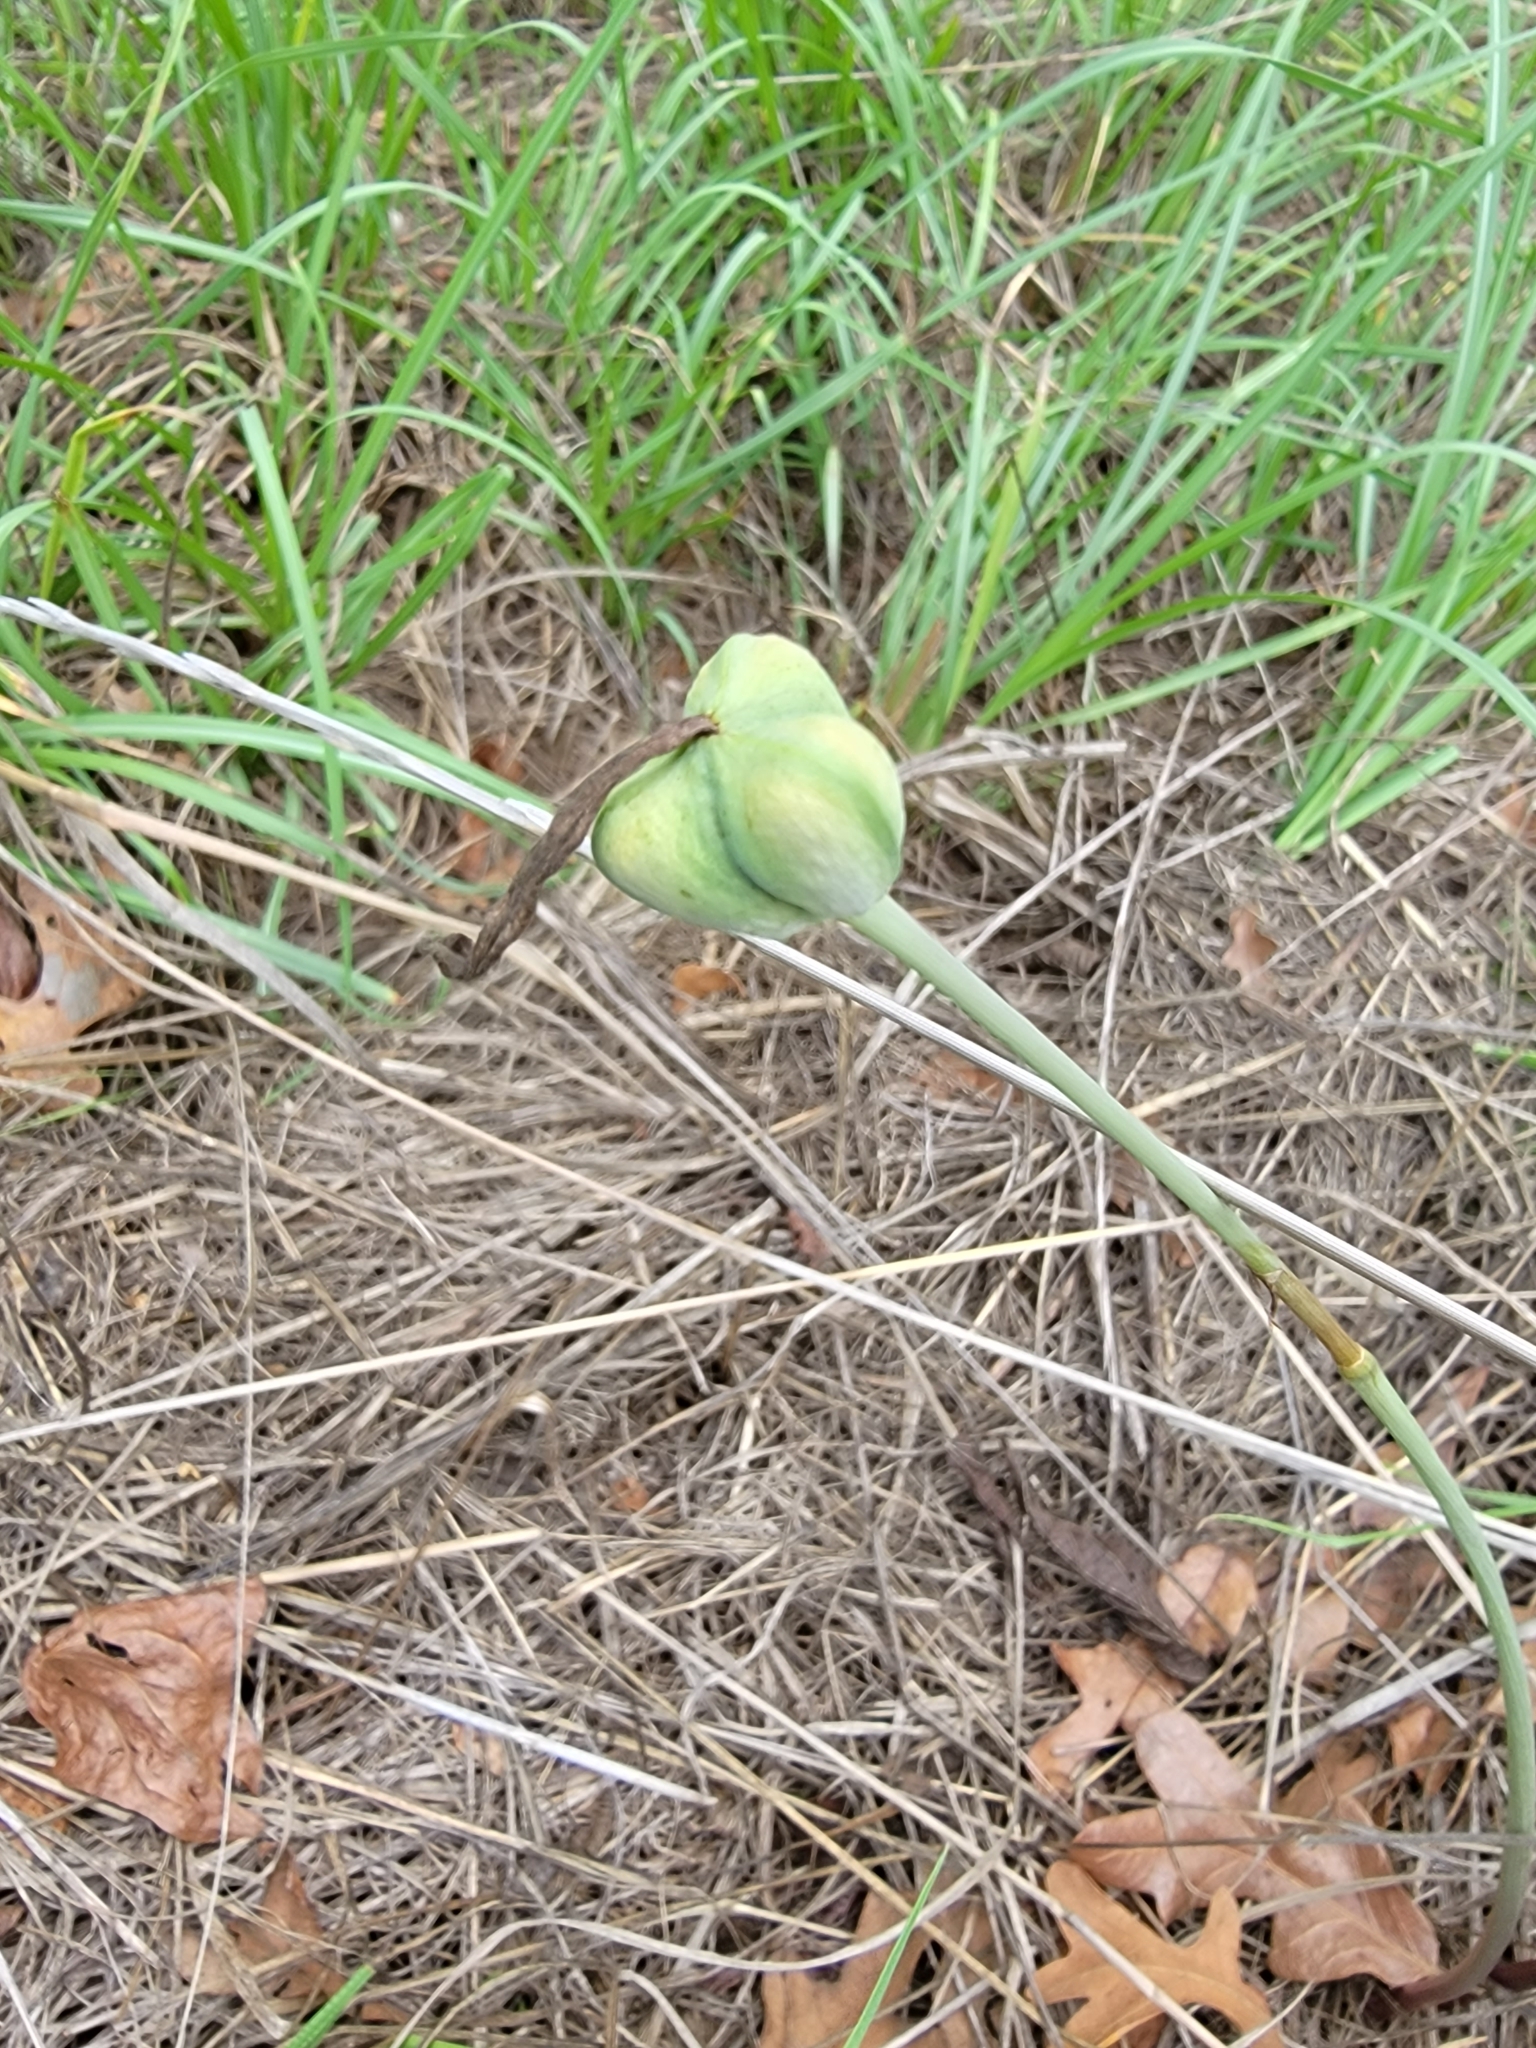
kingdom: Plantae
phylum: Tracheophyta
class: Liliopsida
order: Asparagales
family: Amaryllidaceae
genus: Zephyranthes
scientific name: Zephyranthes tubispatha
